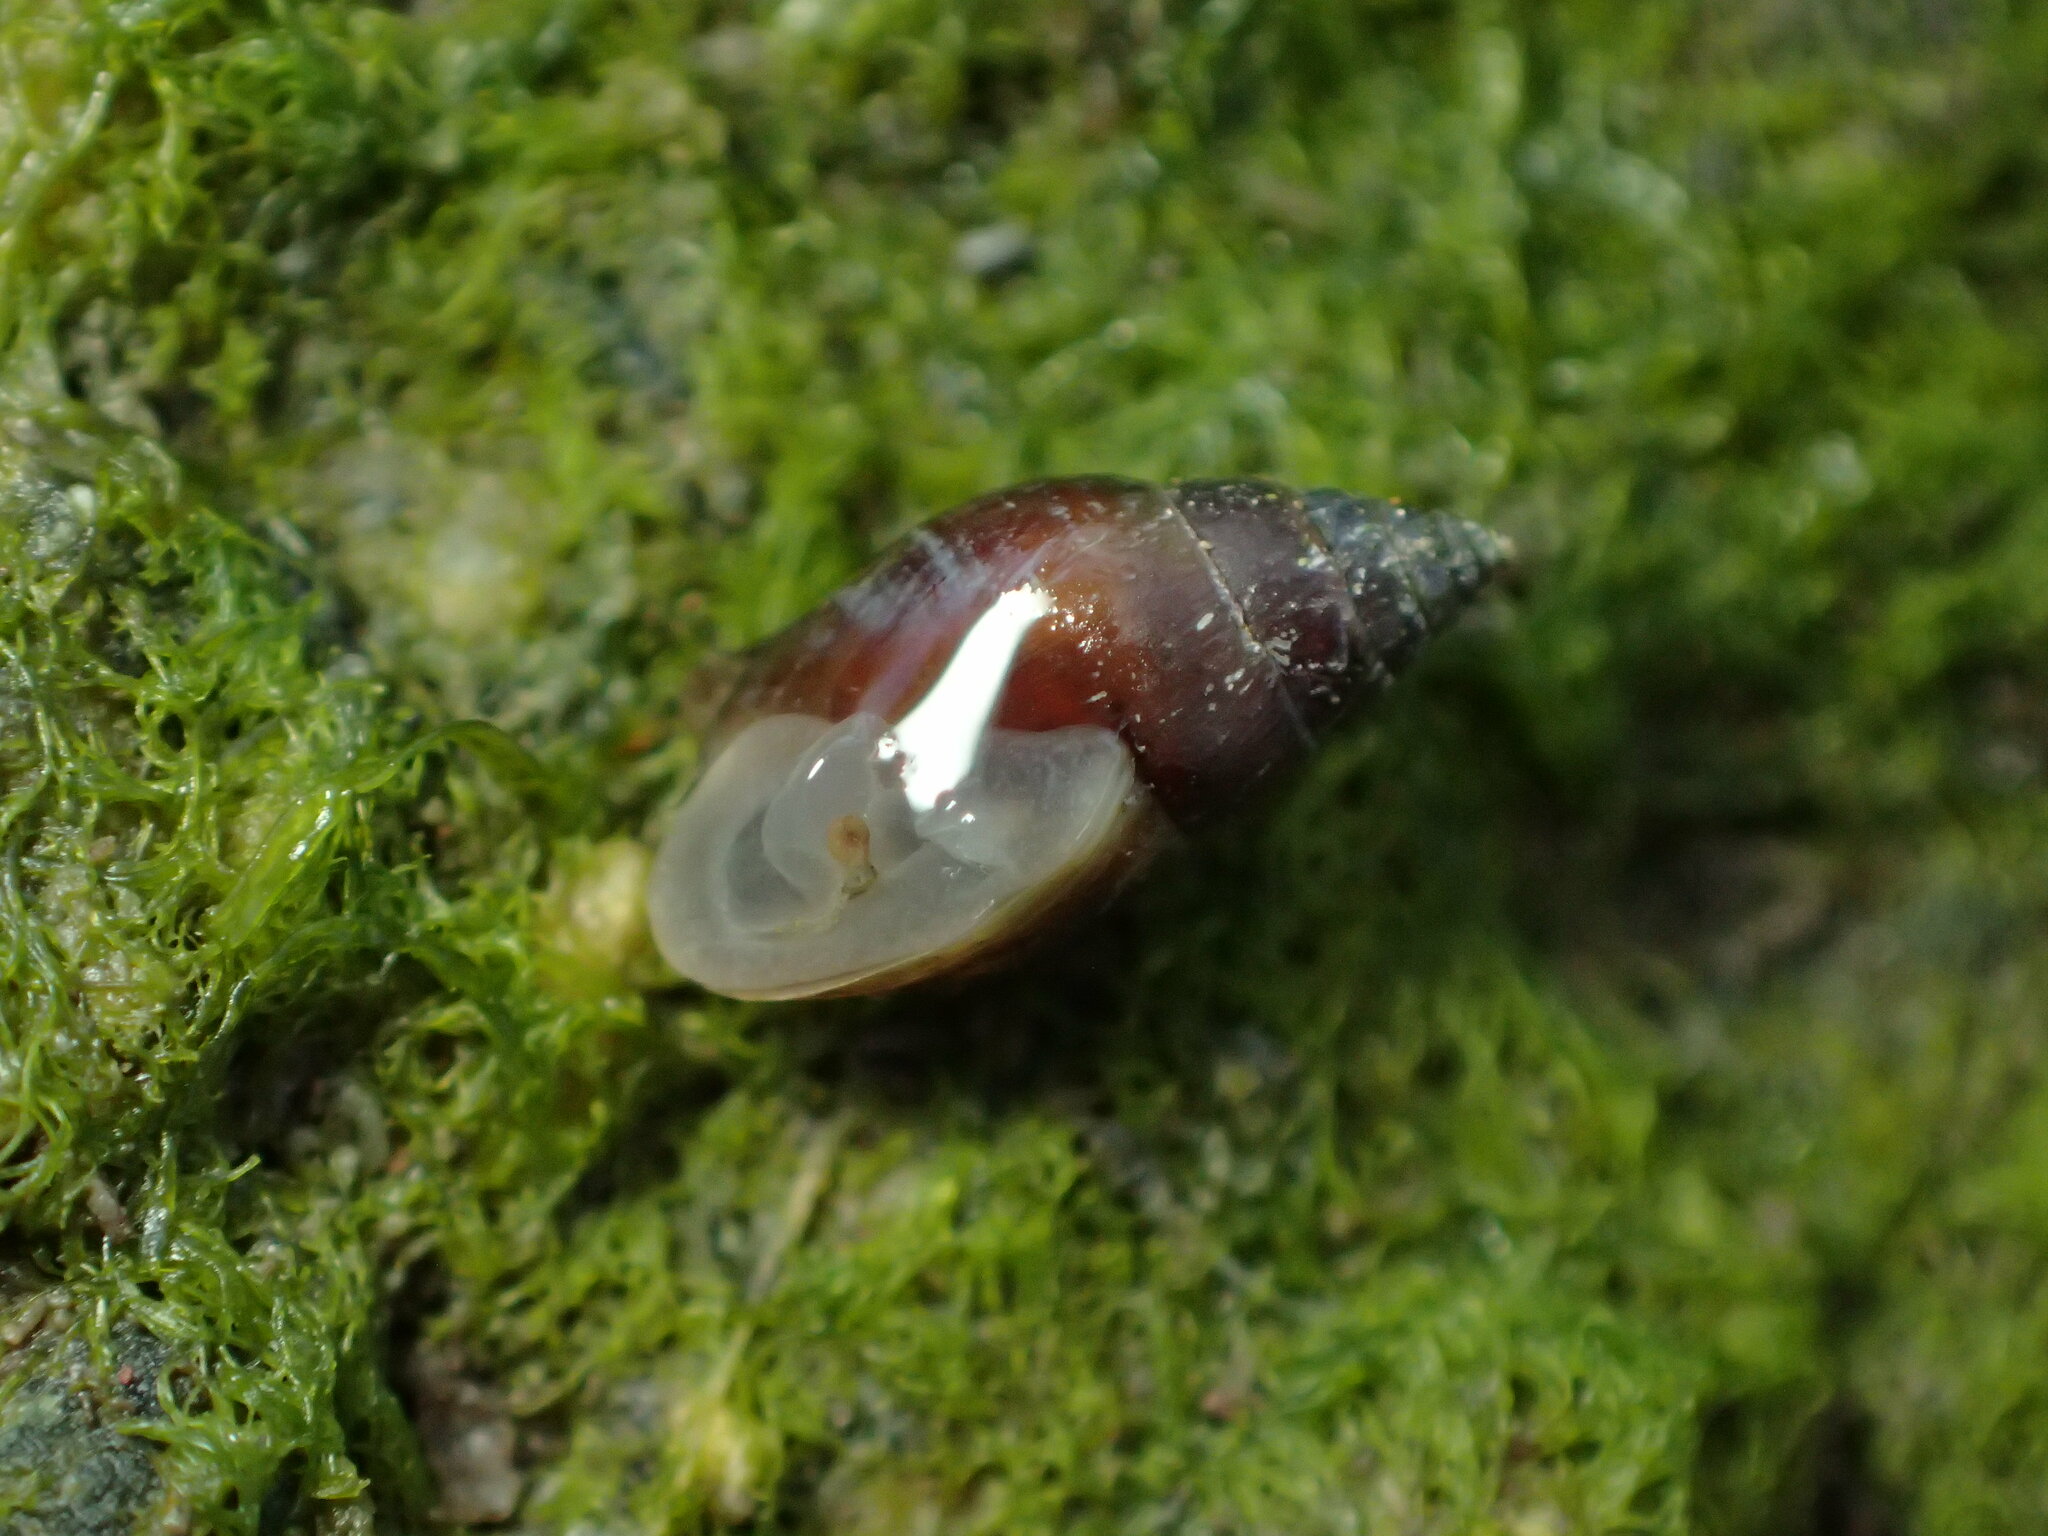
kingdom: Animalia
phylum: Mollusca
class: Gastropoda
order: Ellobiida
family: Ellobiidae
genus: Myosotella
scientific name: Myosotella myosotis
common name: Mouse-eared snail
